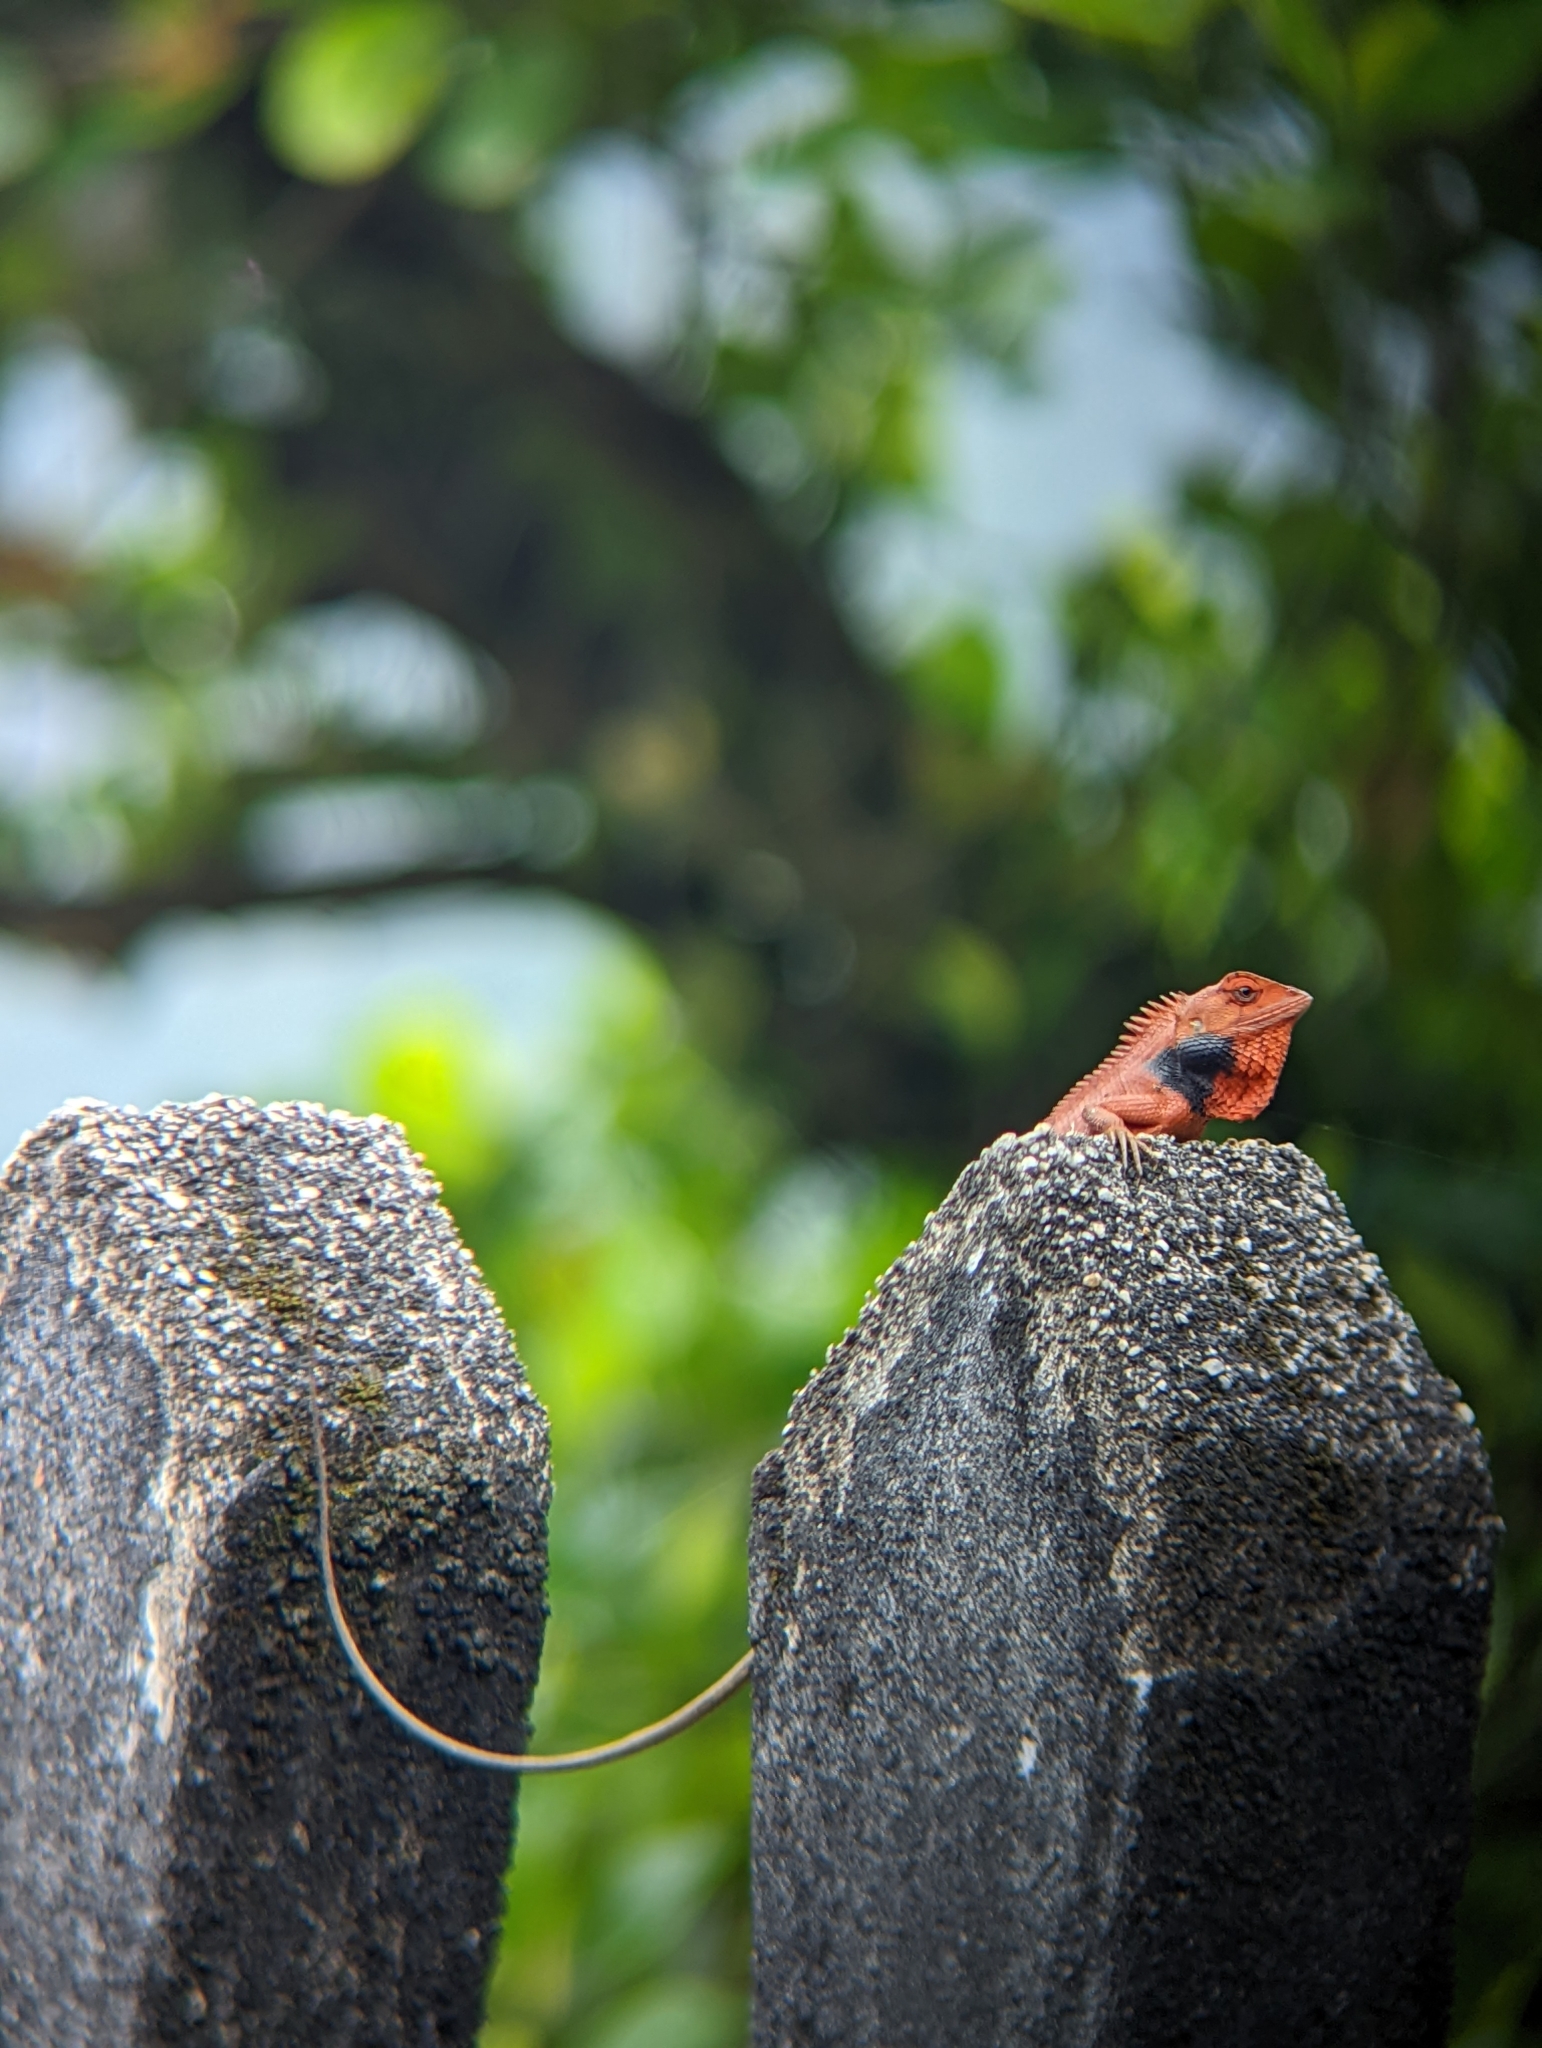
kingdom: Animalia
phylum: Chordata
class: Squamata
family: Agamidae
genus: Calotes
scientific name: Calotes versicolor
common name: Oriental garden lizard
